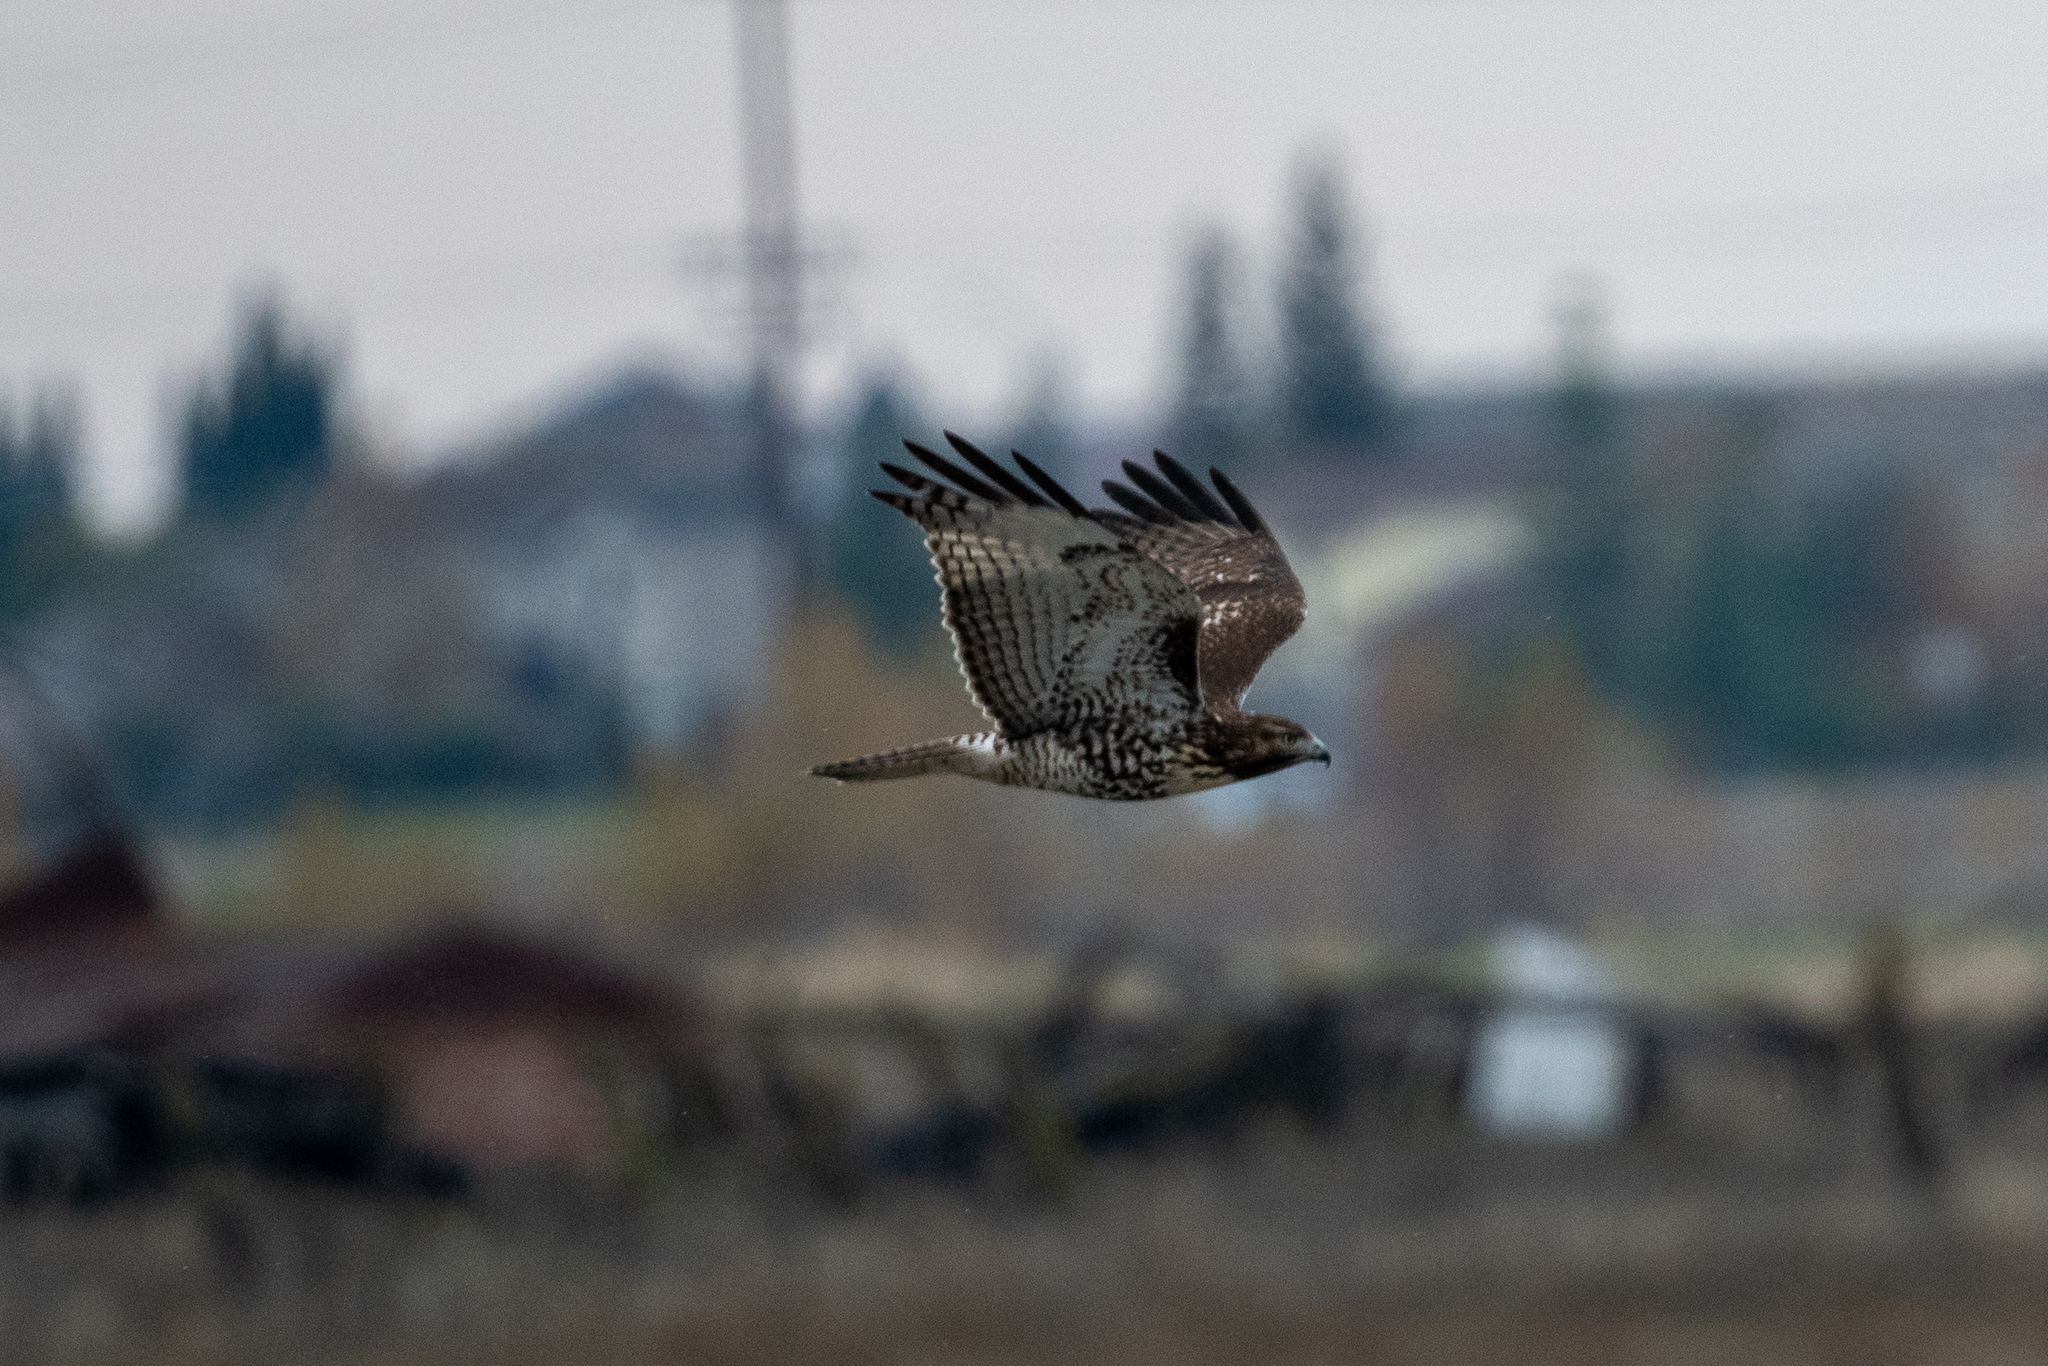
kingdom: Animalia
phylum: Chordata
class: Aves
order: Accipitriformes
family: Accipitridae
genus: Buteo
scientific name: Buteo jamaicensis
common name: Red-tailed hawk
